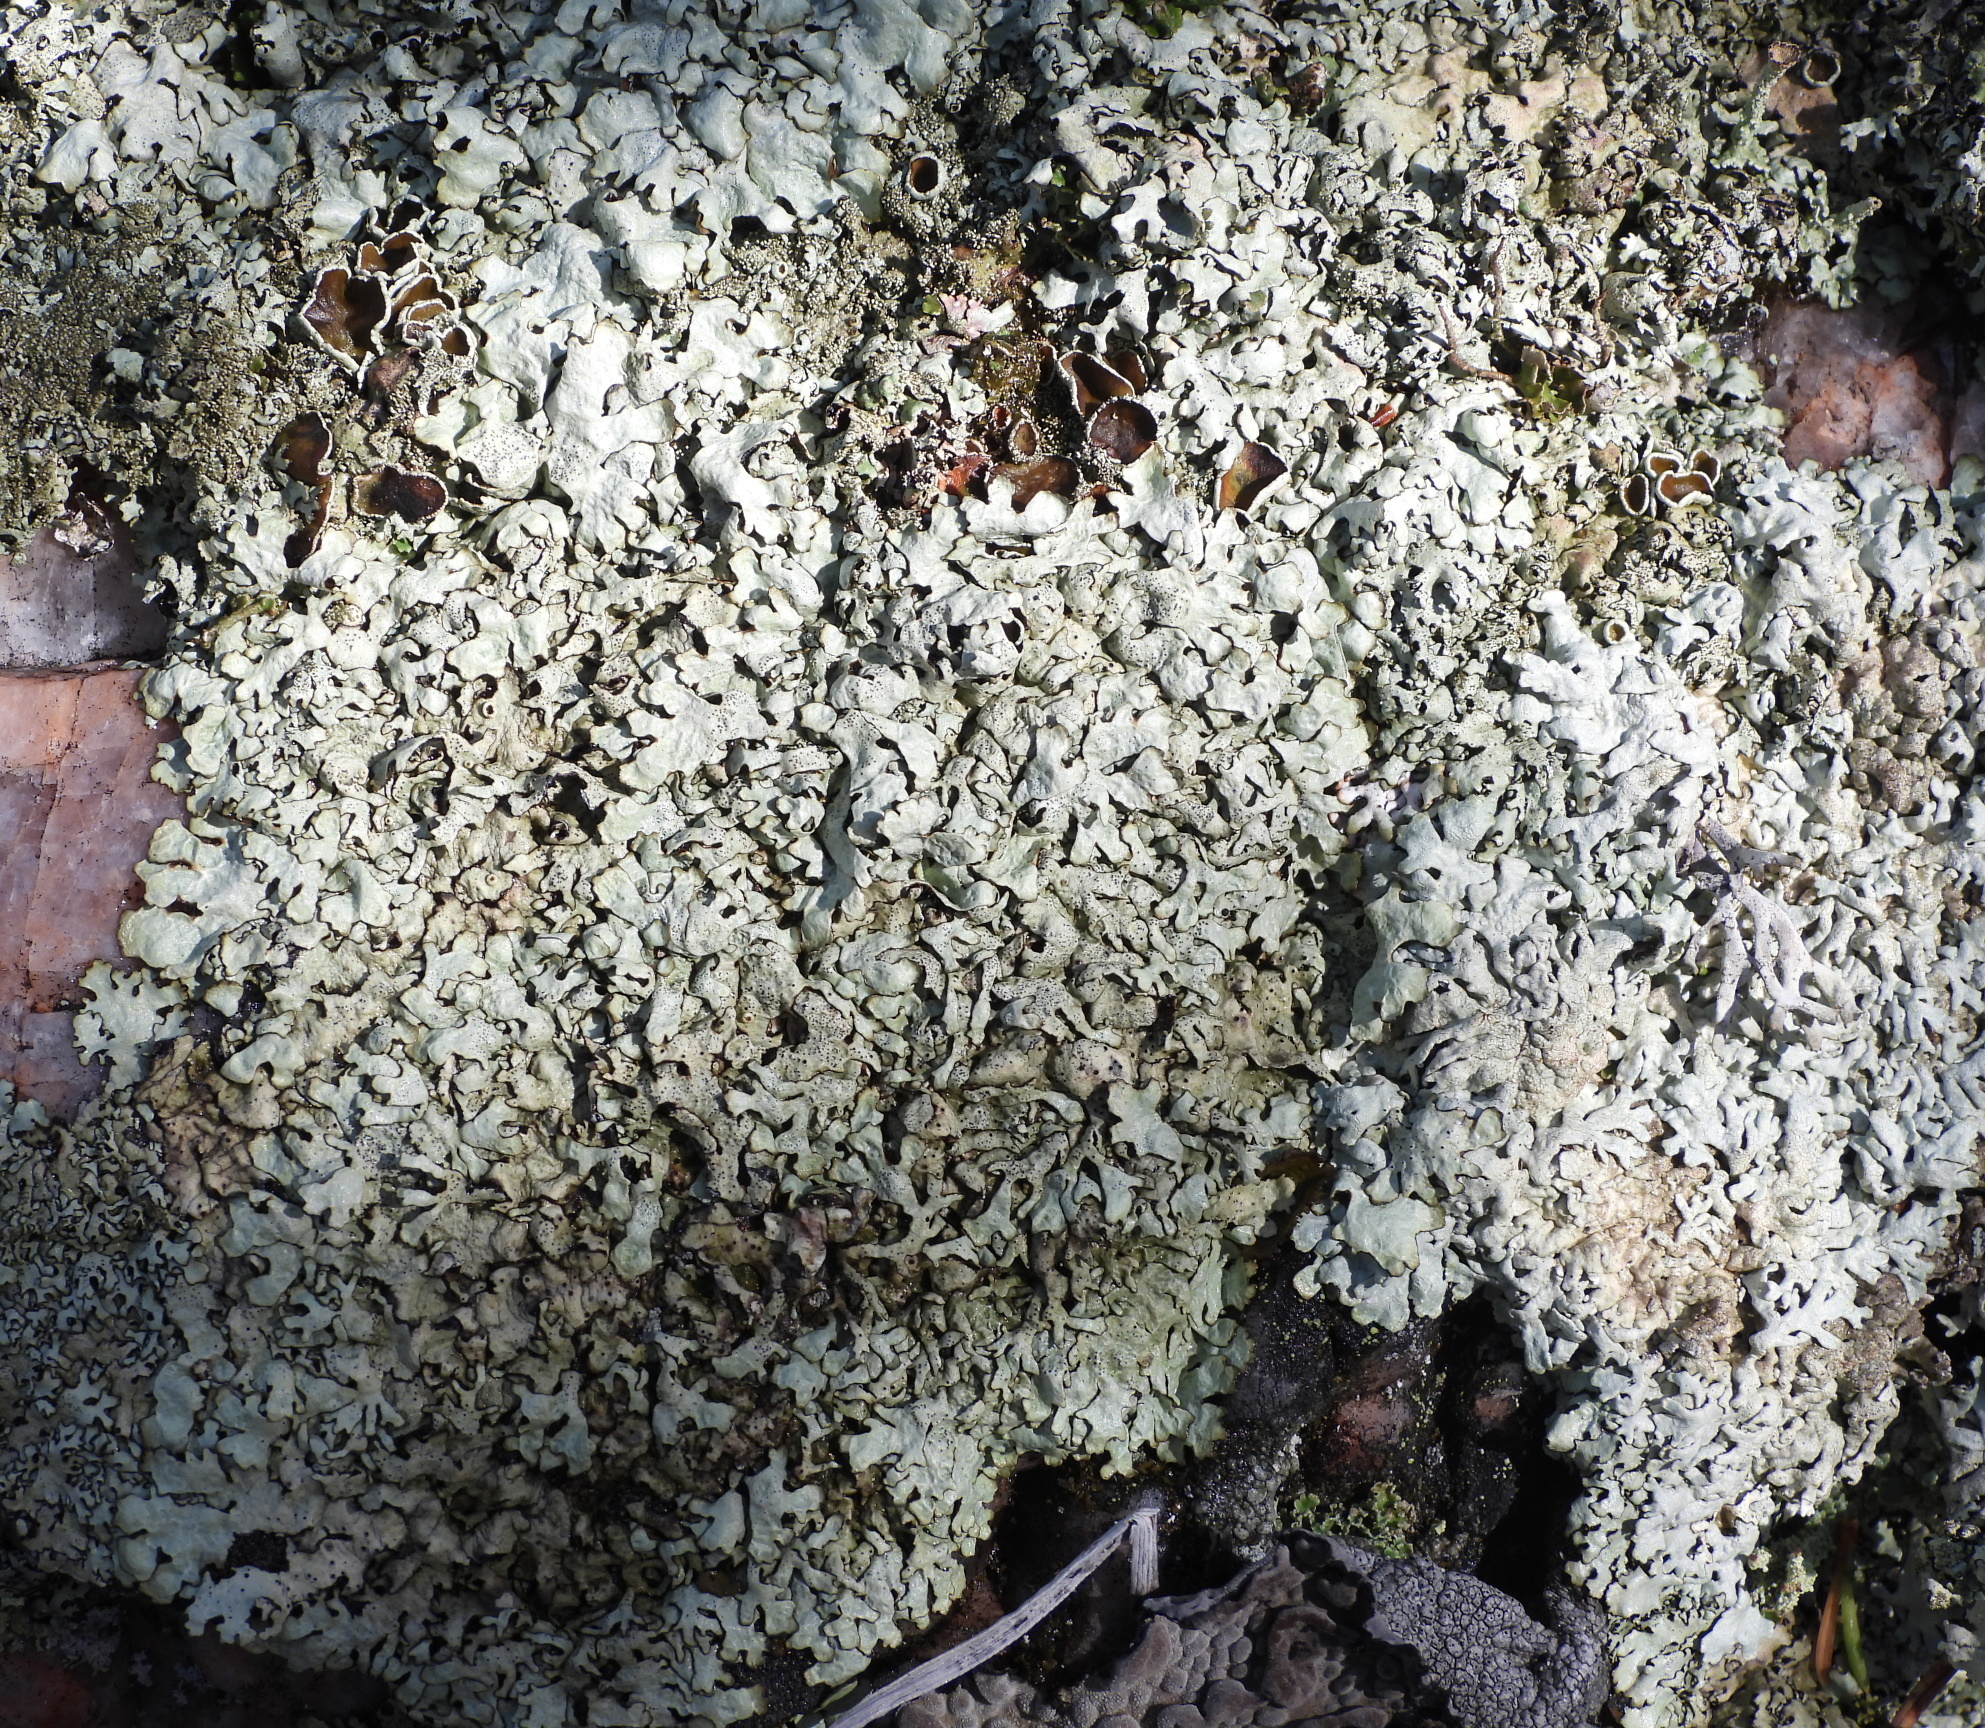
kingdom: Fungi
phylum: Ascomycota
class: Lecanoromycetes
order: Lecanorales
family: Parmeliaceae
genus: Xanthoparmelia
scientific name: Xanthoparmelia stenophylla
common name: Shingled rock shield
